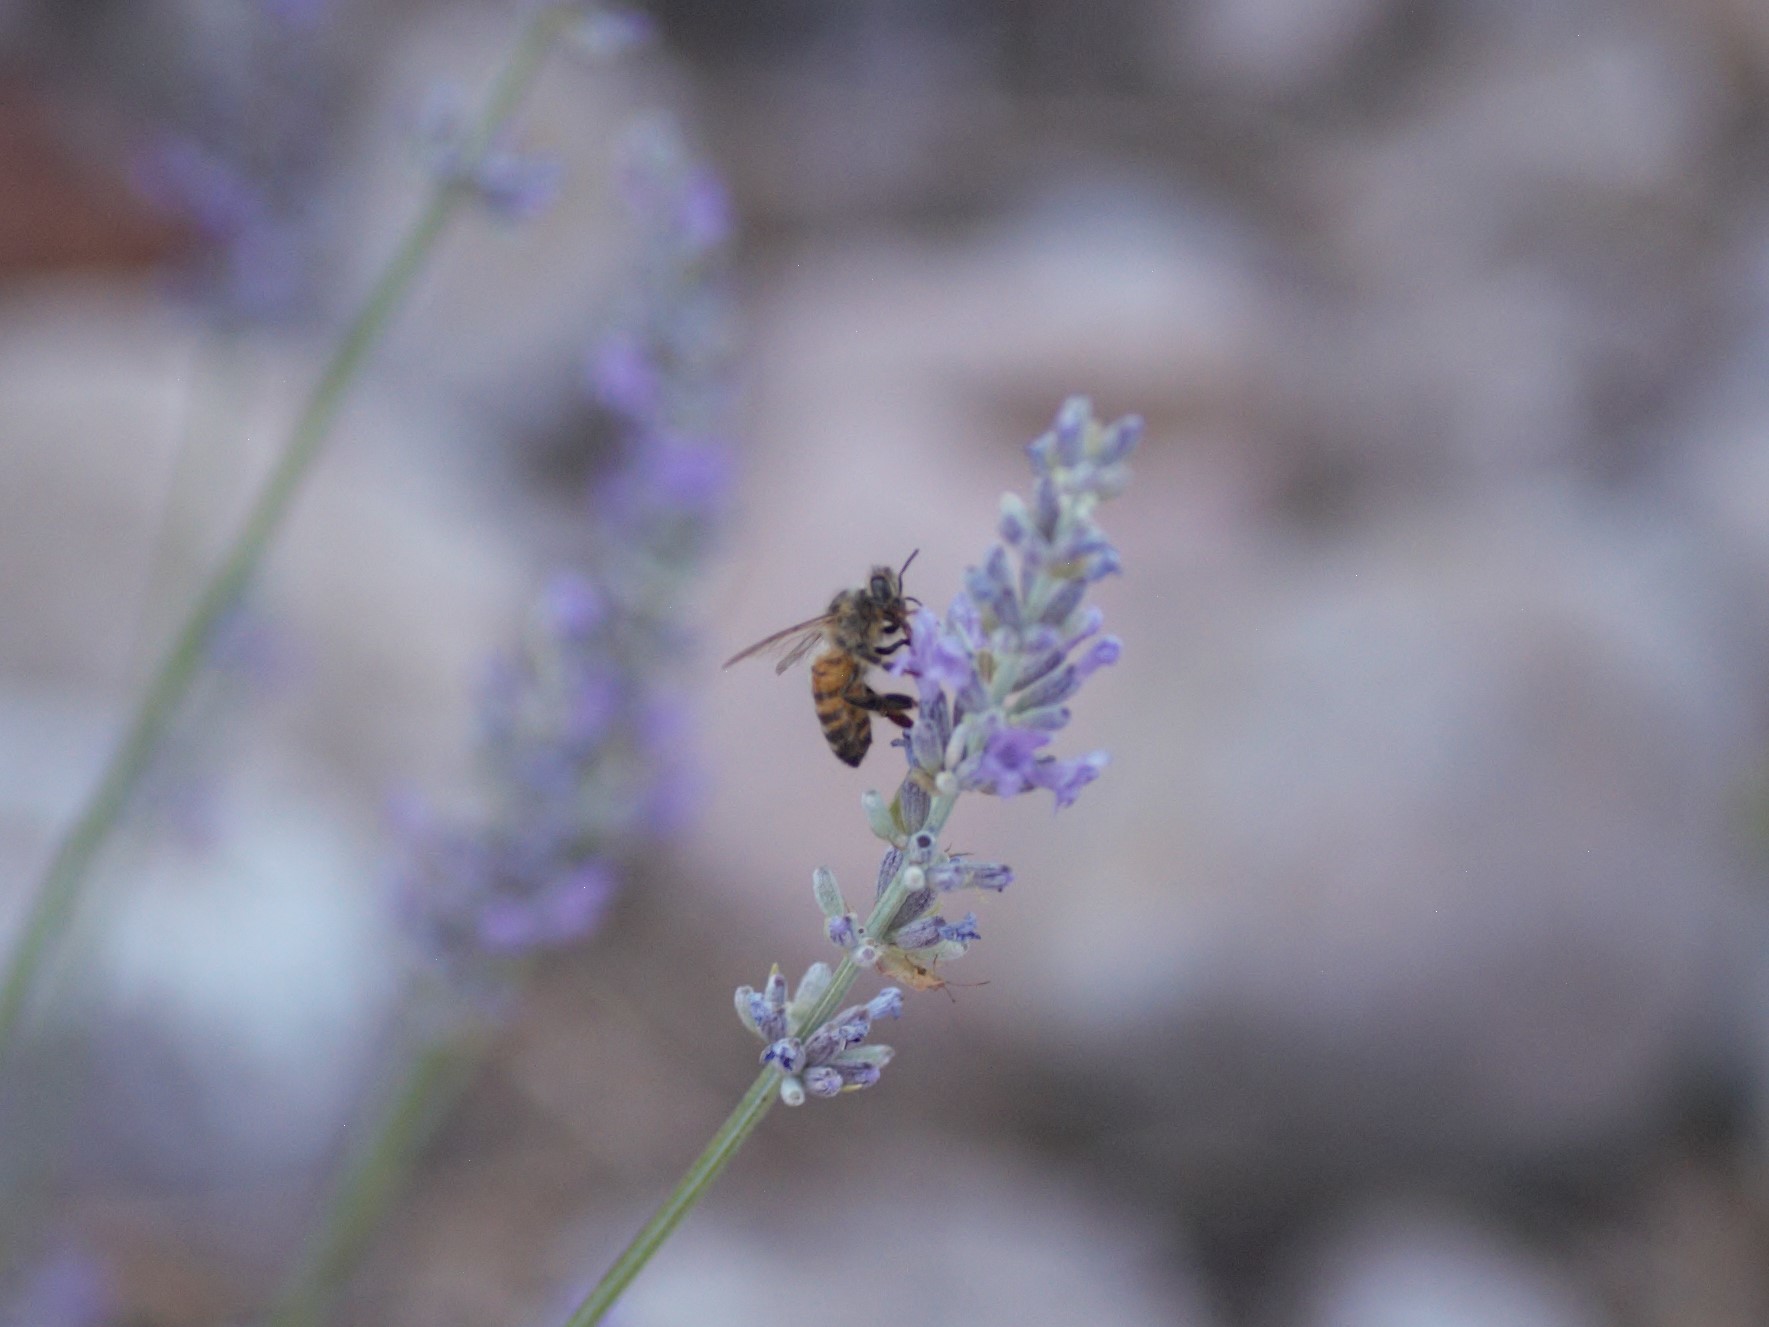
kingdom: Animalia
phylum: Arthropoda
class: Insecta
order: Hymenoptera
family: Apidae
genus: Apis
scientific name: Apis mellifera
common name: Honey bee
